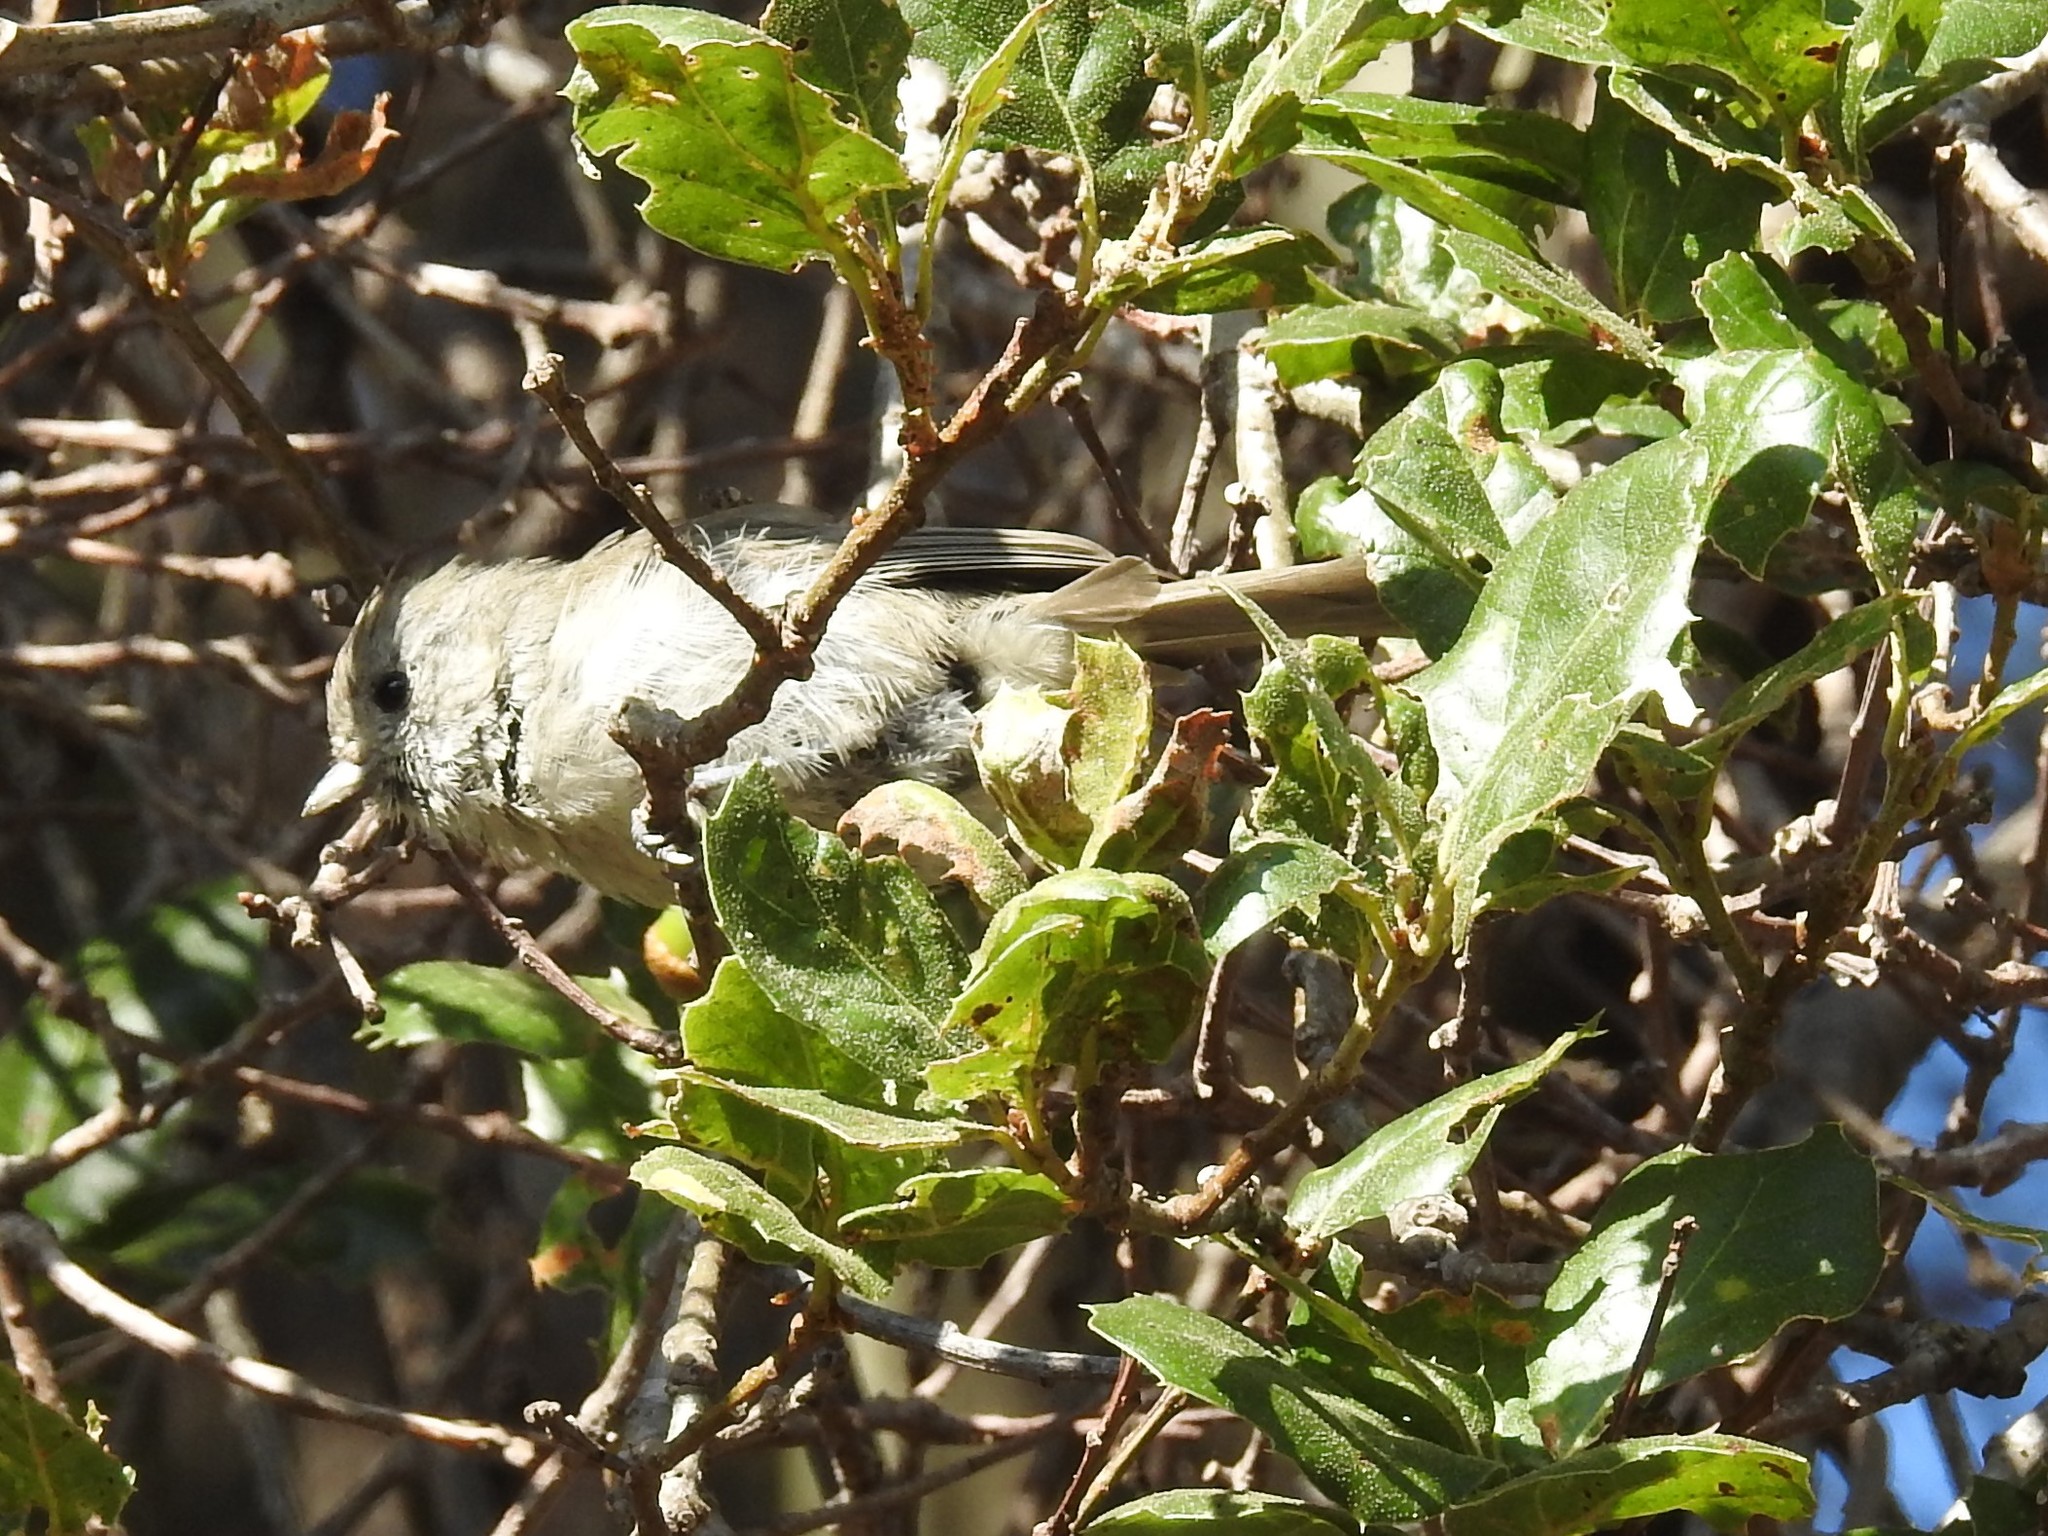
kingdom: Animalia
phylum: Chordata
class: Aves
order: Passeriformes
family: Paridae
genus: Baeolophus
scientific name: Baeolophus inornatus
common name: Oak titmouse
